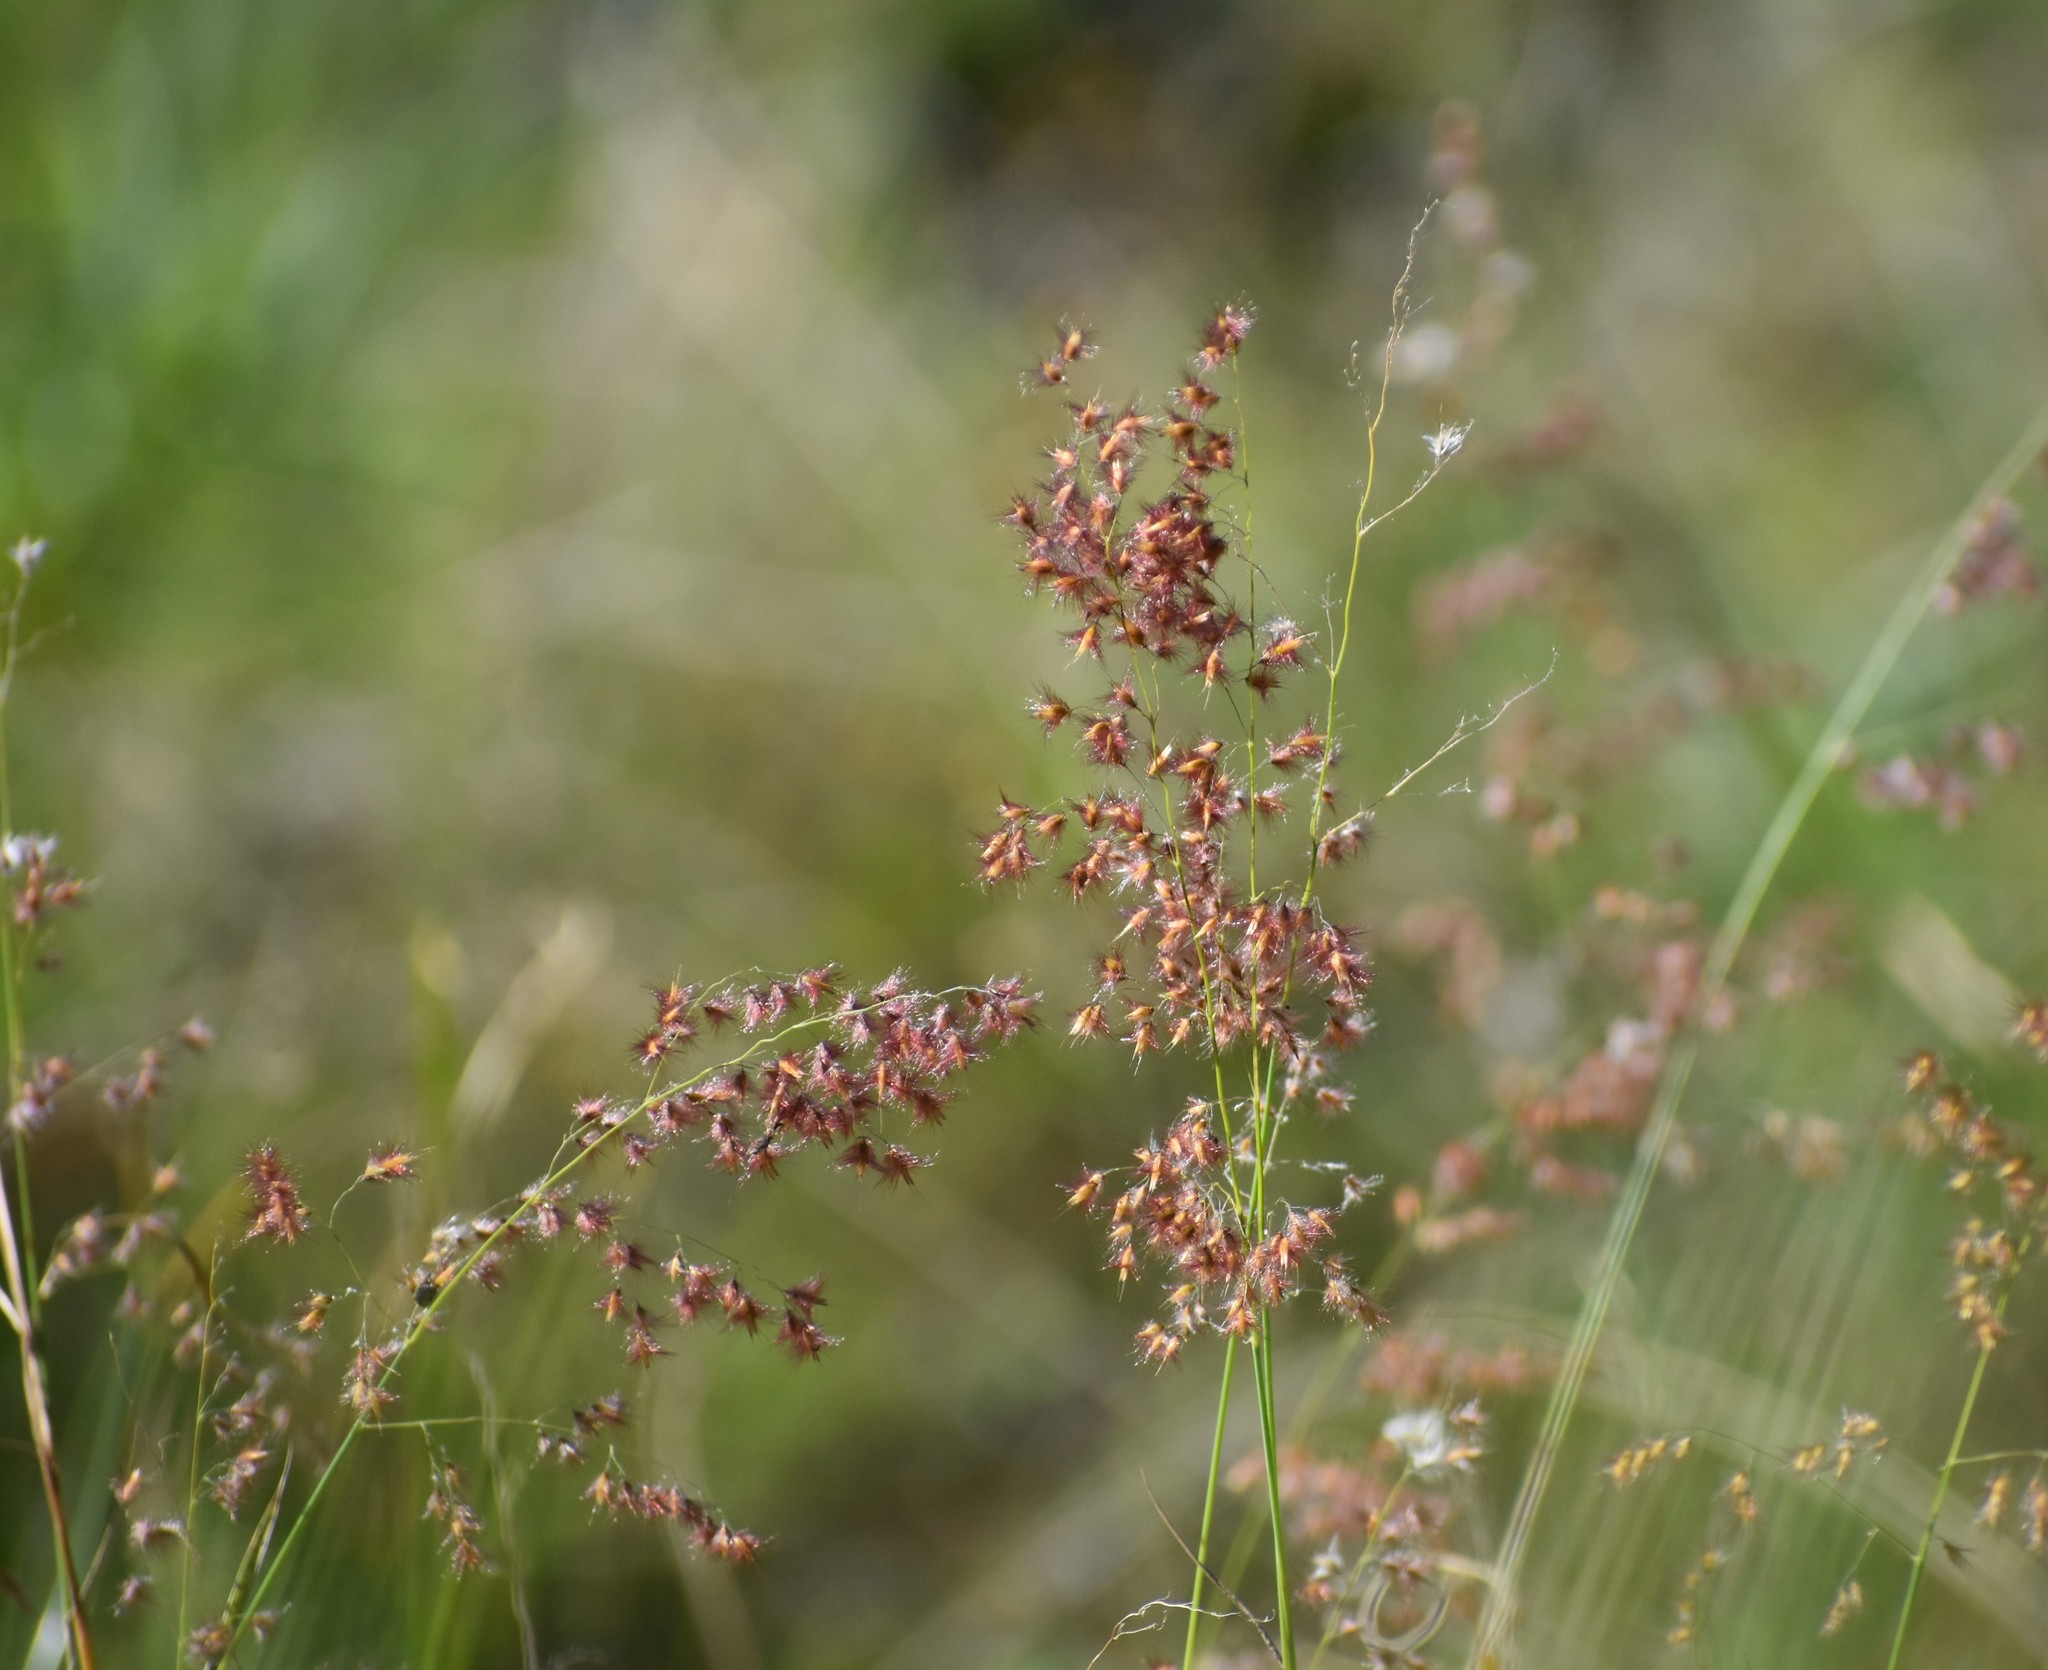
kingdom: Plantae
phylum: Tracheophyta
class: Liliopsida
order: Poales
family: Poaceae
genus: Melinis
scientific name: Melinis repens
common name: Rose natal grass
